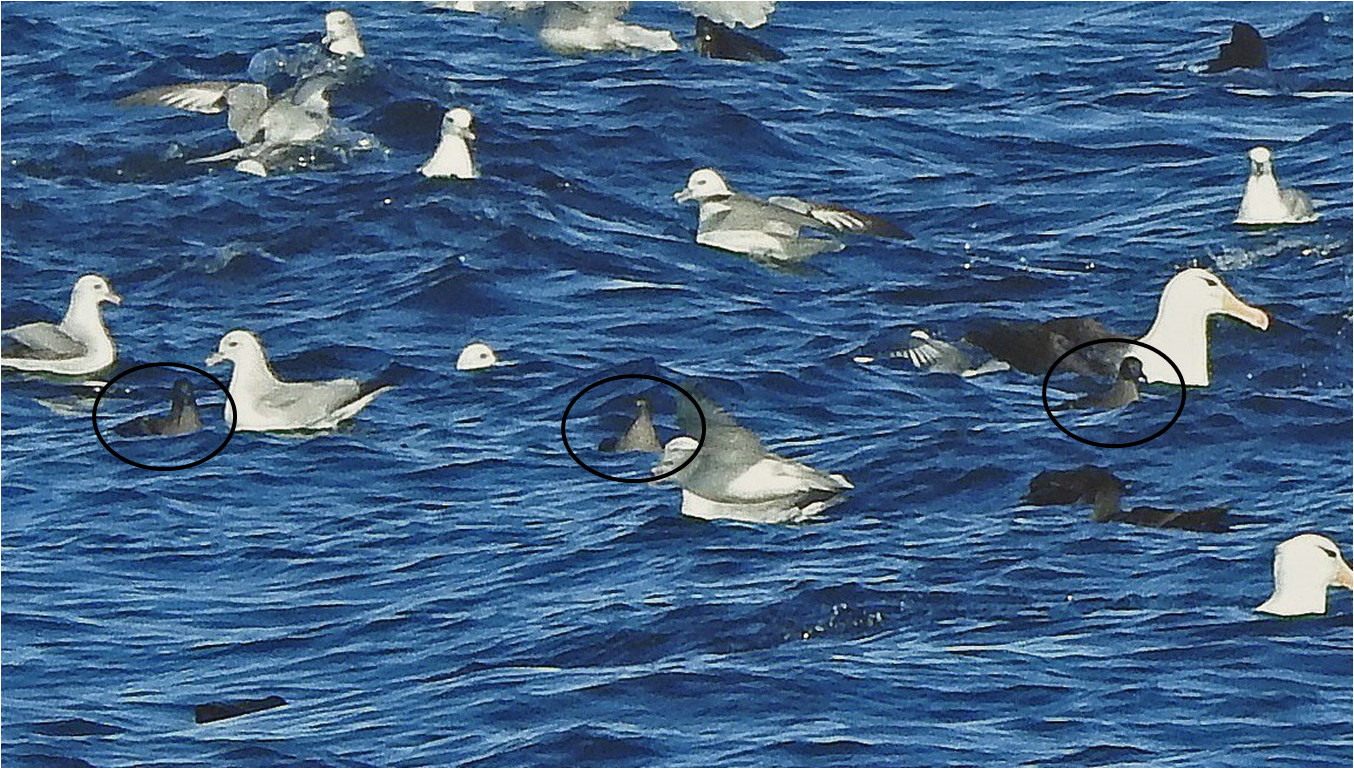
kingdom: Animalia
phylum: Chordata
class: Aves
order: Procellariiformes
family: Procellariidae
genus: Puffinus
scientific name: Puffinus griseus
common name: Sooty shearwater
